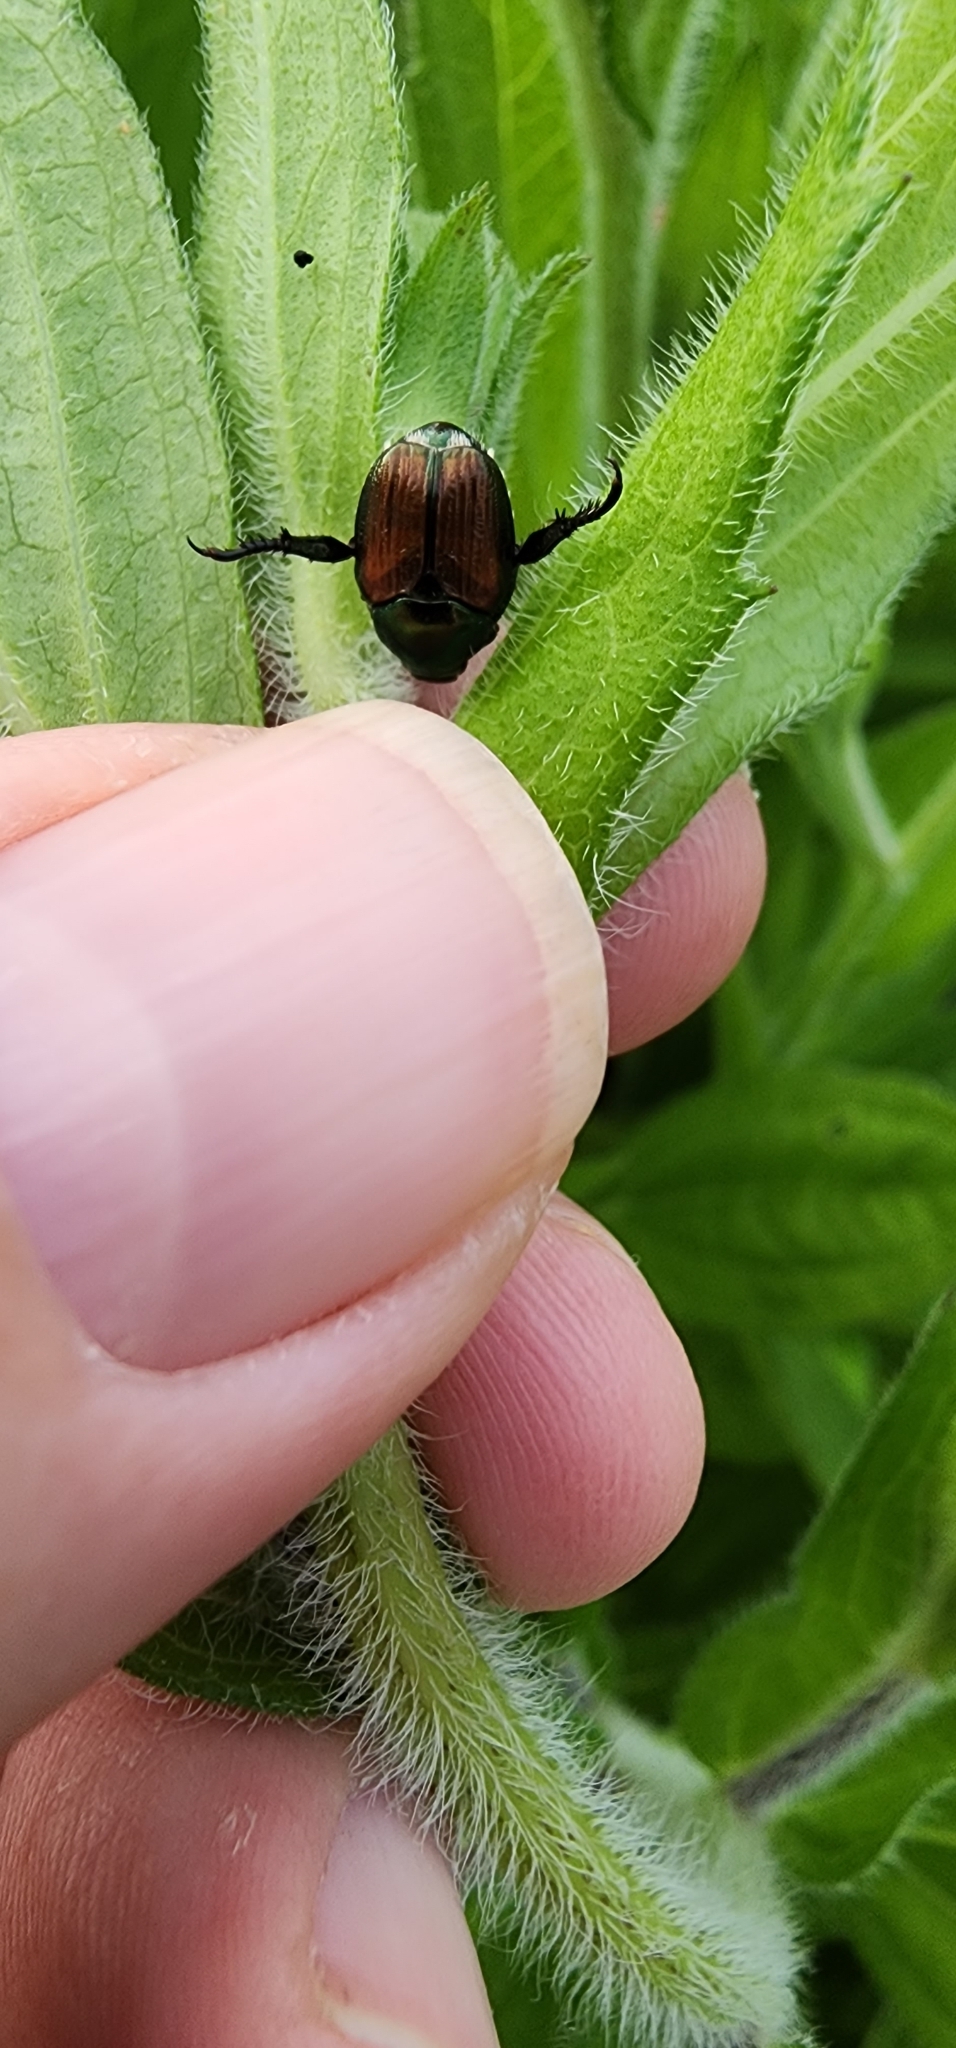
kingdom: Animalia
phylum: Arthropoda
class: Insecta
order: Coleoptera
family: Scarabaeidae
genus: Popillia
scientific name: Popillia japonica
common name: Japanese beetle
